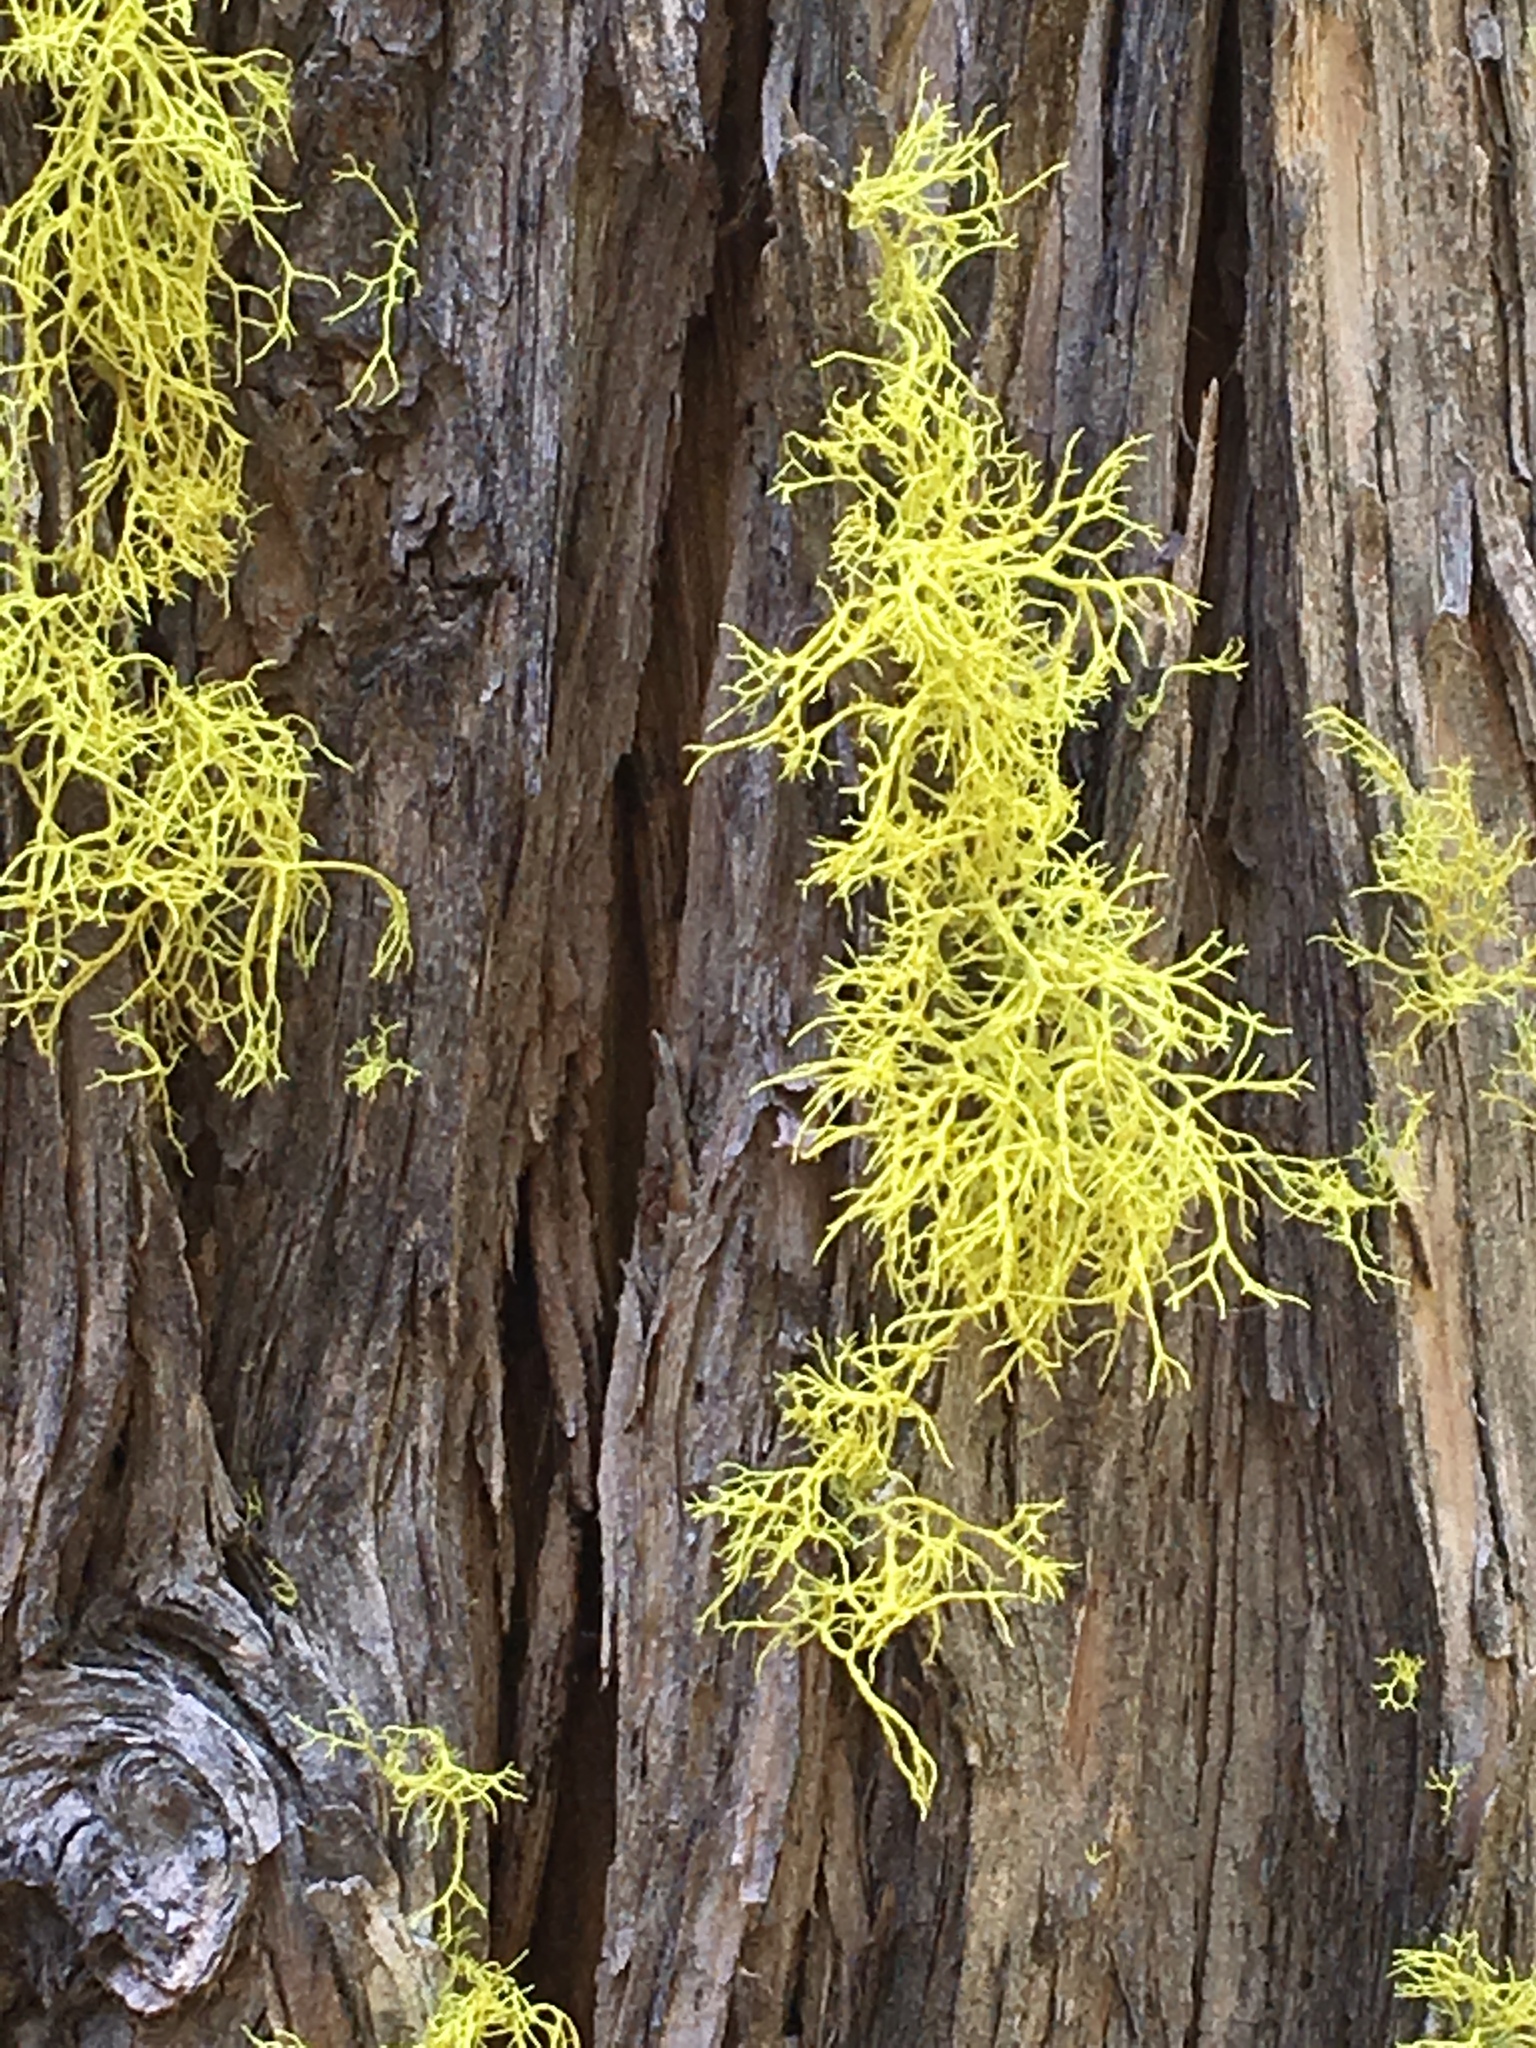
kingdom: Fungi
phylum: Ascomycota
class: Lecanoromycetes
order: Lecanorales
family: Parmeliaceae
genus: Letharia
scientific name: Letharia vulpina
